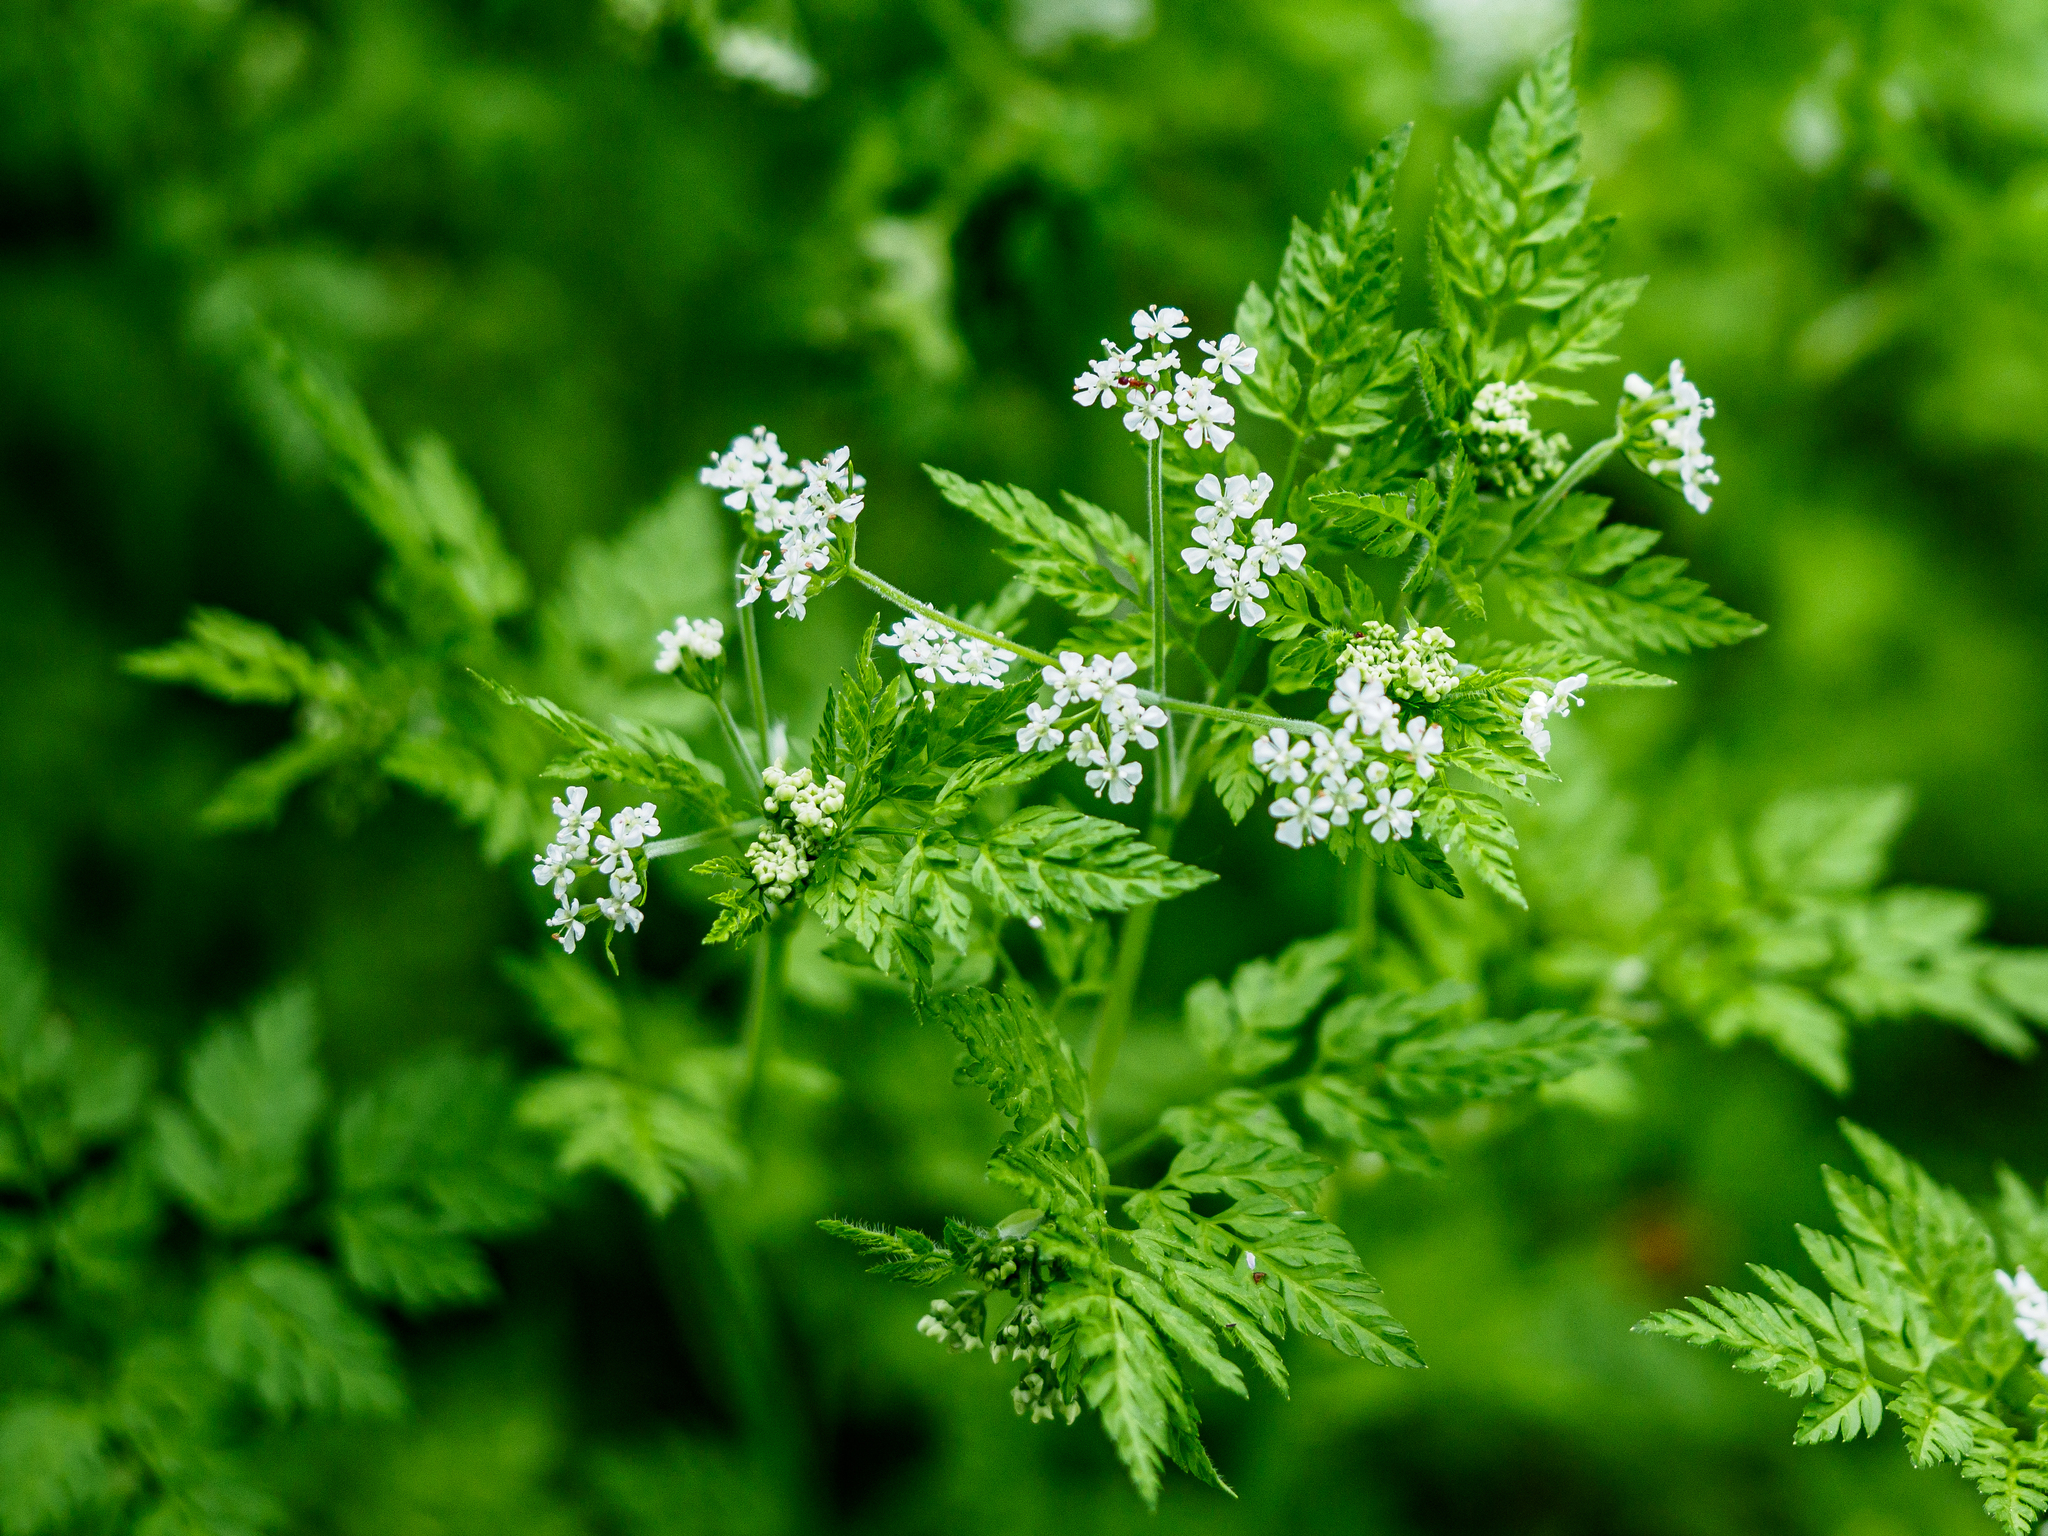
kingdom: Plantae
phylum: Tracheophyta
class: Magnoliopsida
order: Apiales
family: Apiaceae
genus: Anthriscus
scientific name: Anthriscus cerefolium
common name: Garden chervil
